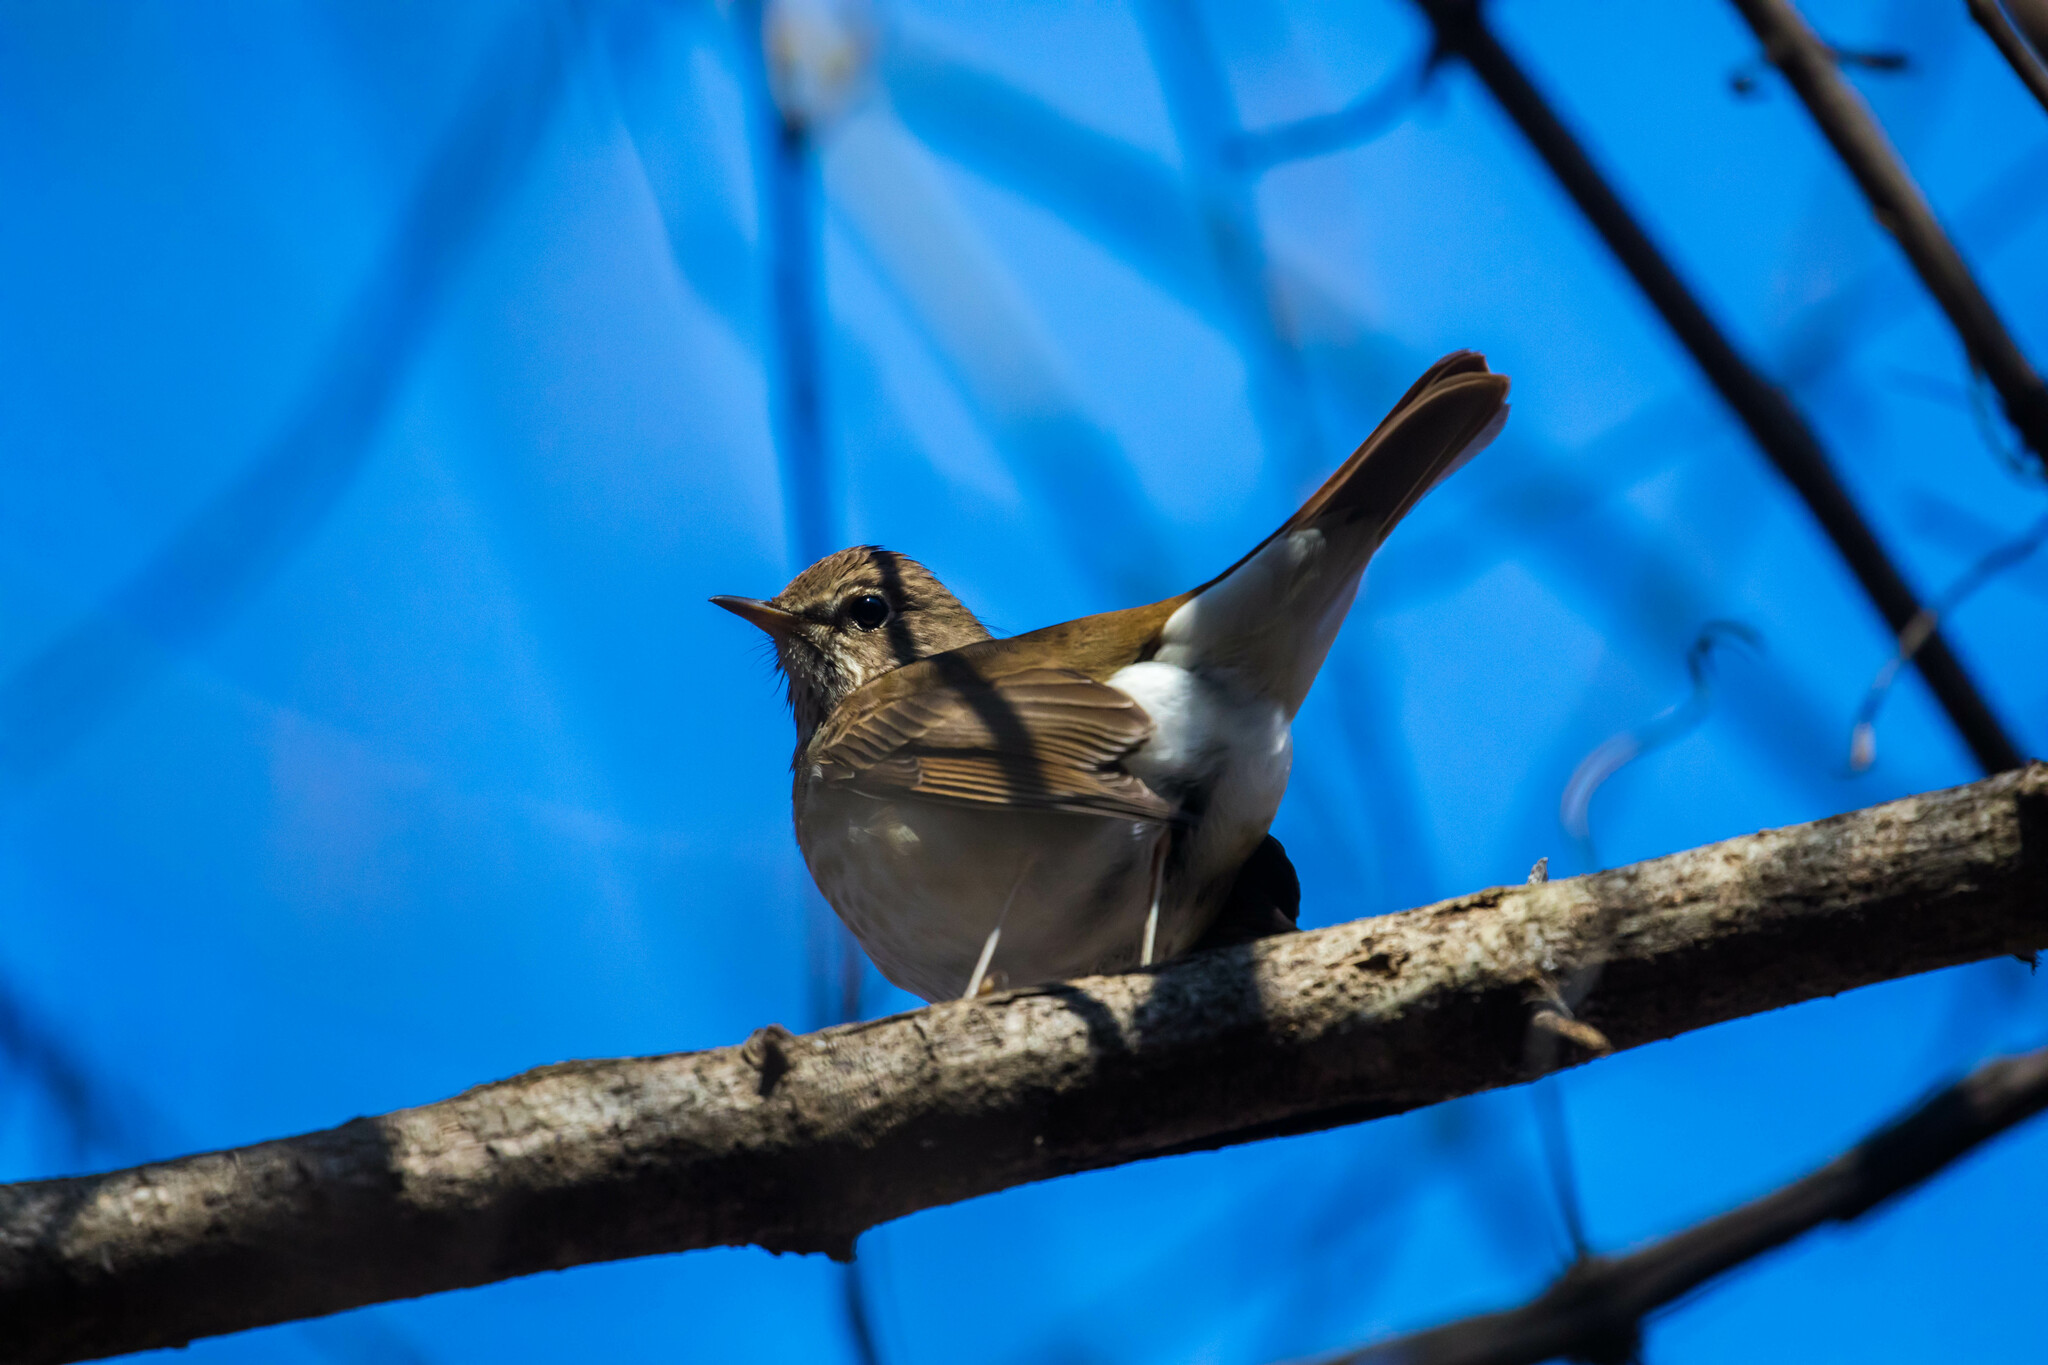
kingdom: Animalia
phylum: Chordata
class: Aves
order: Passeriformes
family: Turdidae
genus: Catharus
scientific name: Catharus guttatus
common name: Hermit thrush
